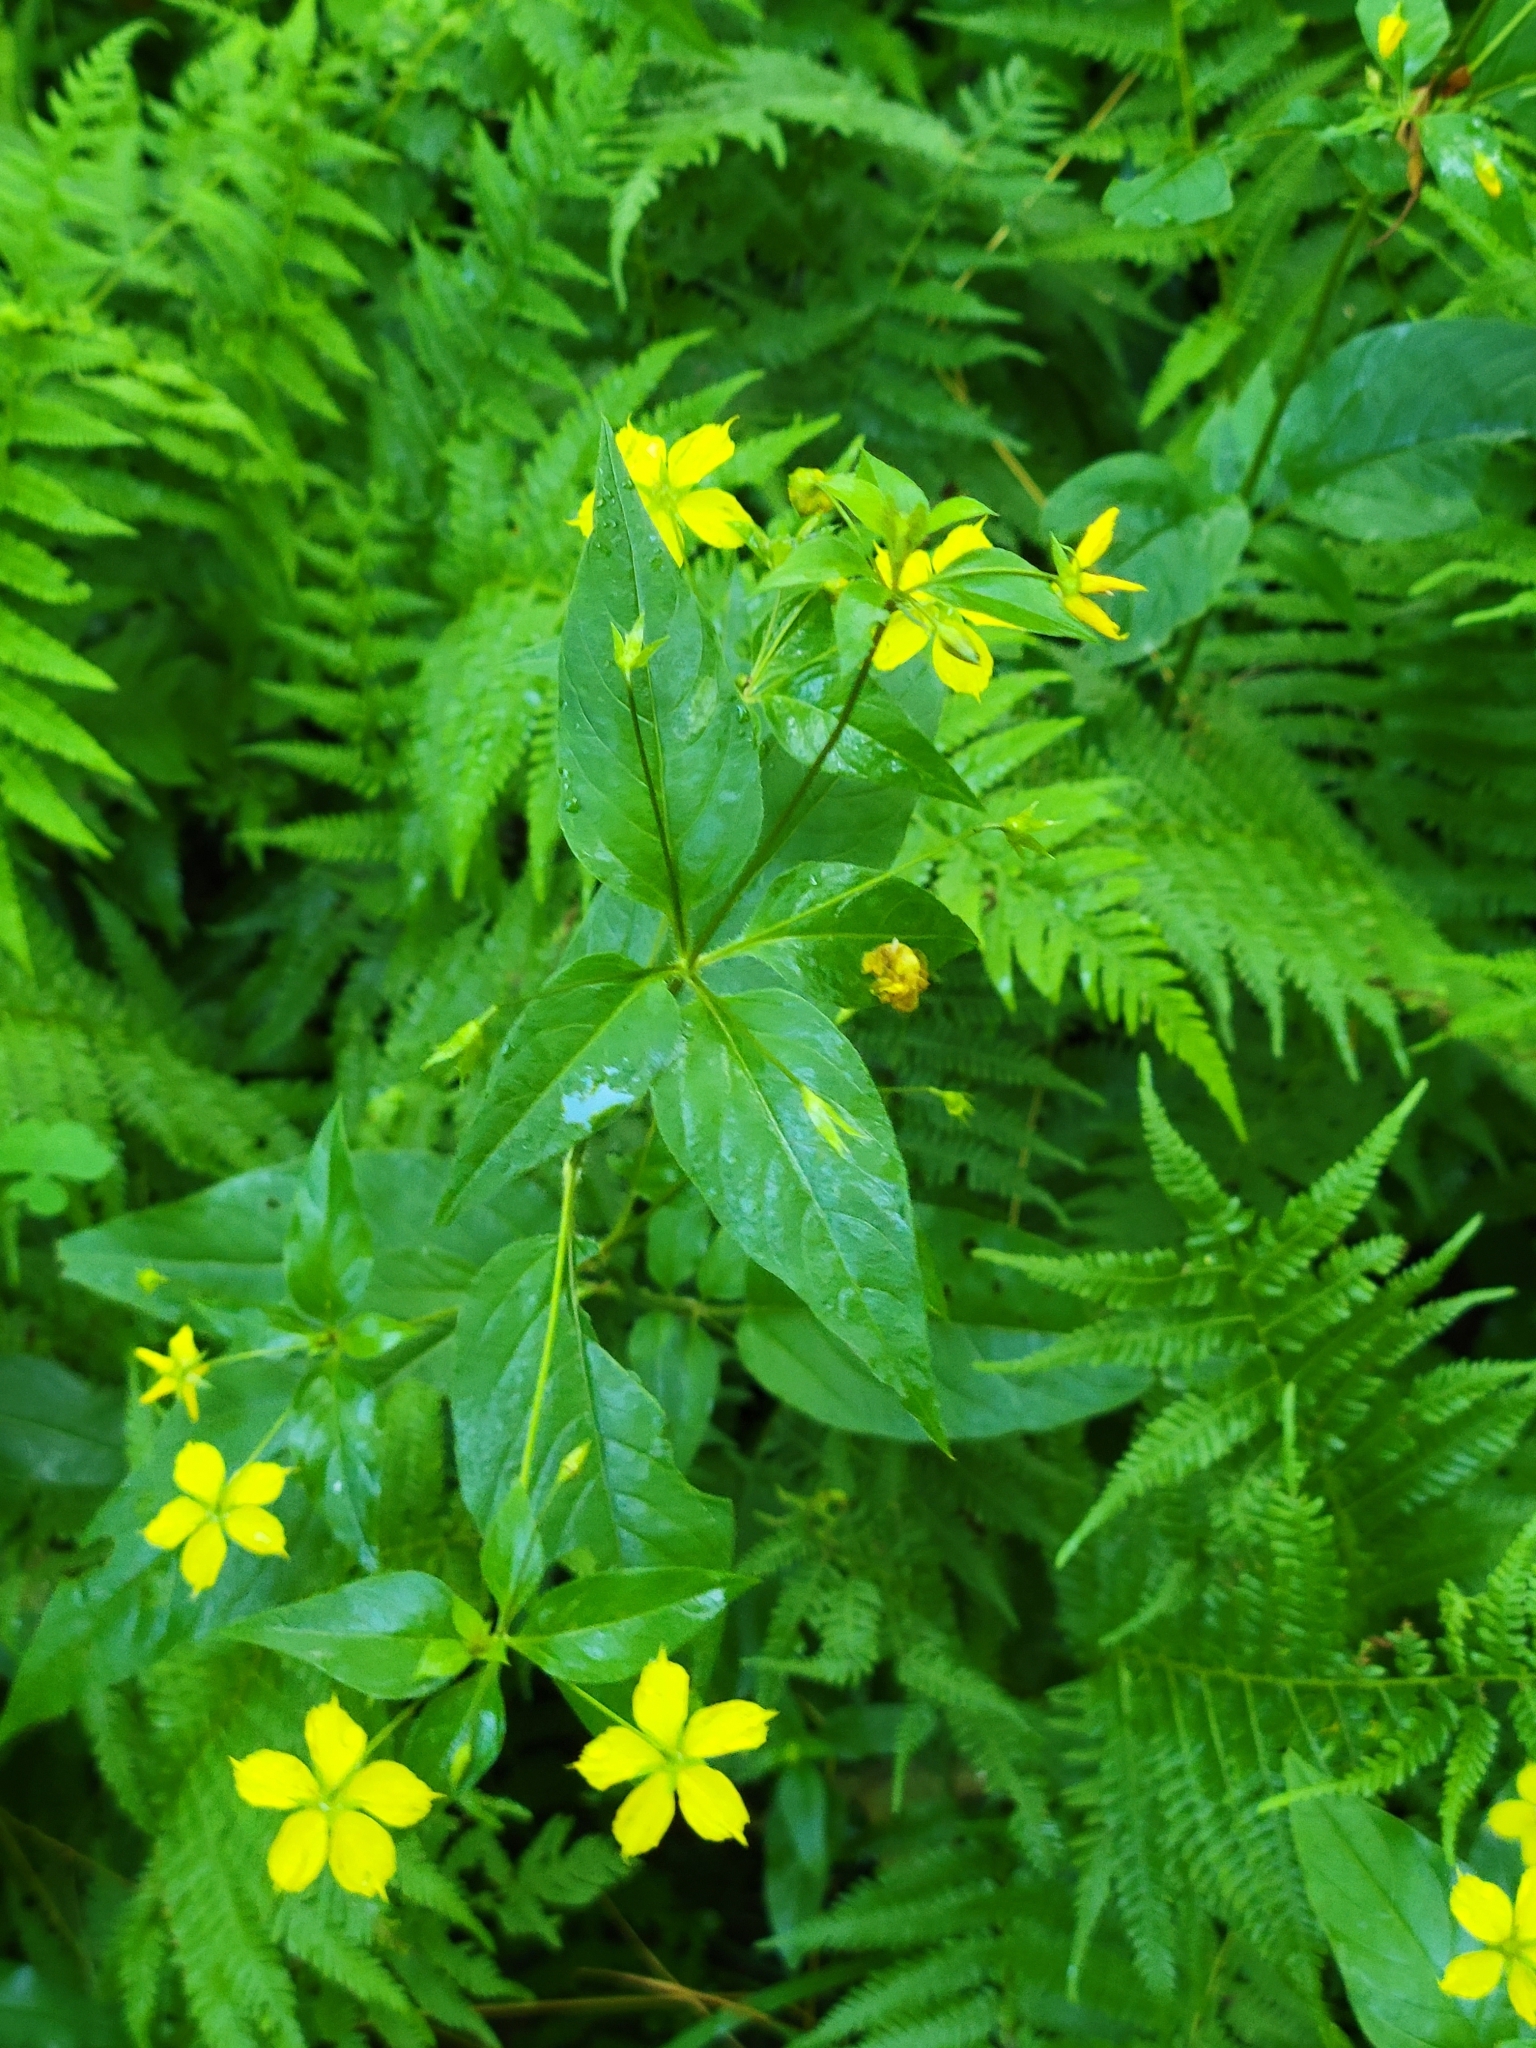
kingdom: Plantae
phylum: Tracheophyta
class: Magnoliopsida
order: Ericales
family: Primulaceae
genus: Lysimachia
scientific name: Lysimachia ciliata
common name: Fringed loosestrife
